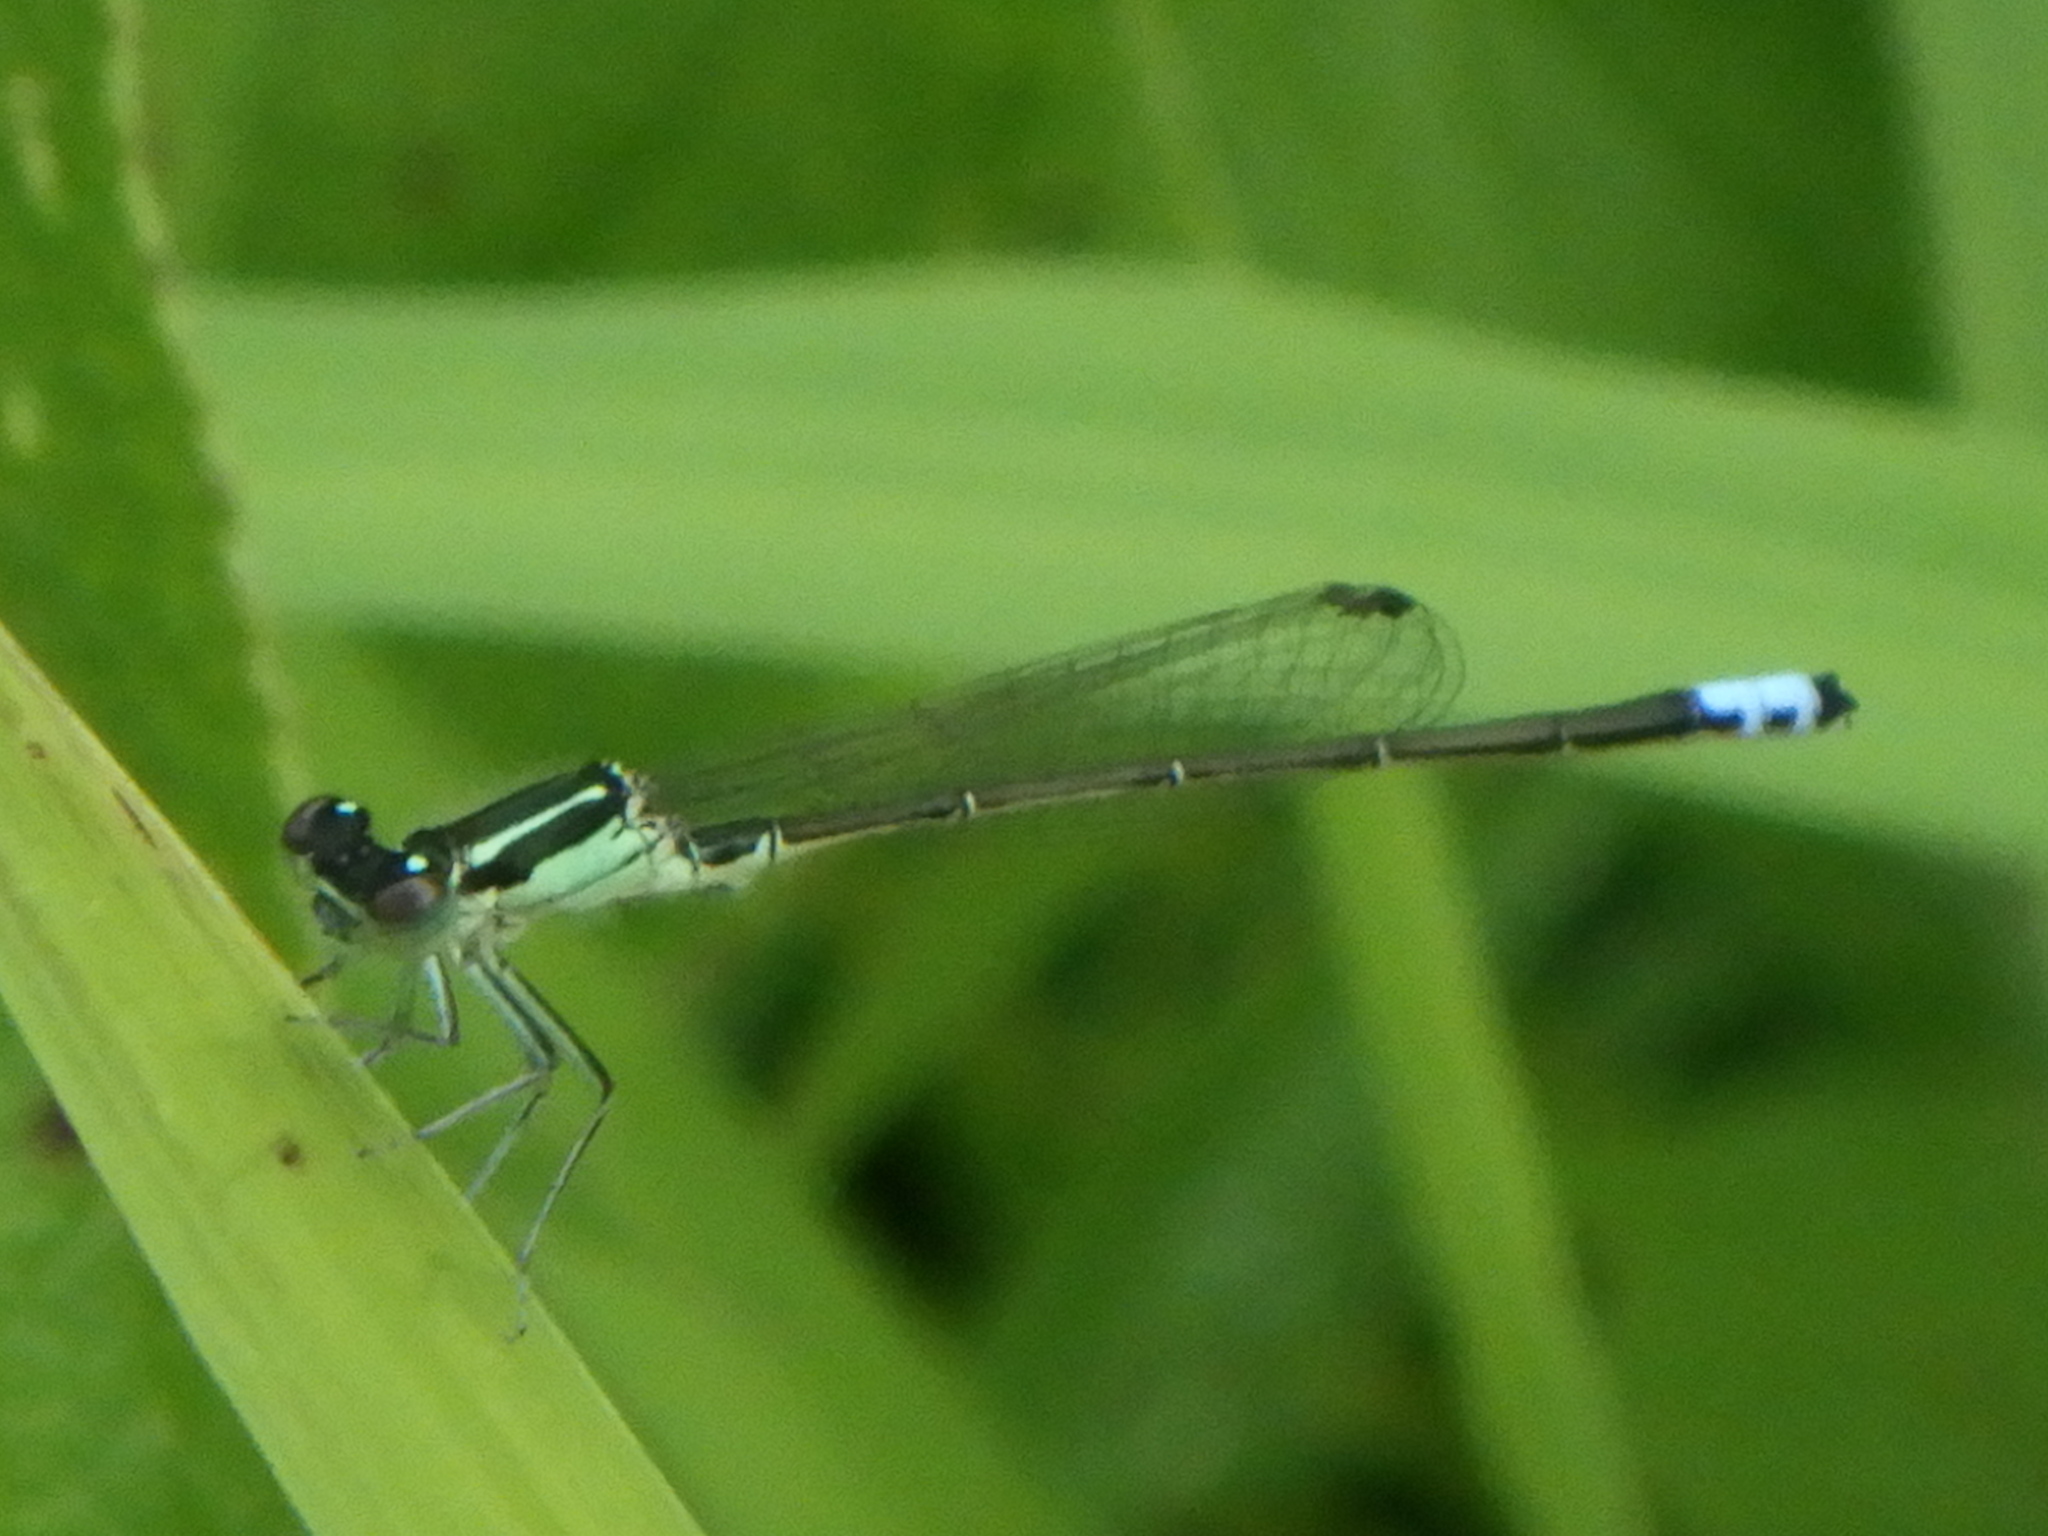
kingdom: Animalia
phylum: Arthropoda
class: Insecta
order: Odonata
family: Coenagrionidae
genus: Ischnura
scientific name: Ischnura verticalis
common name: Eastern forktail
